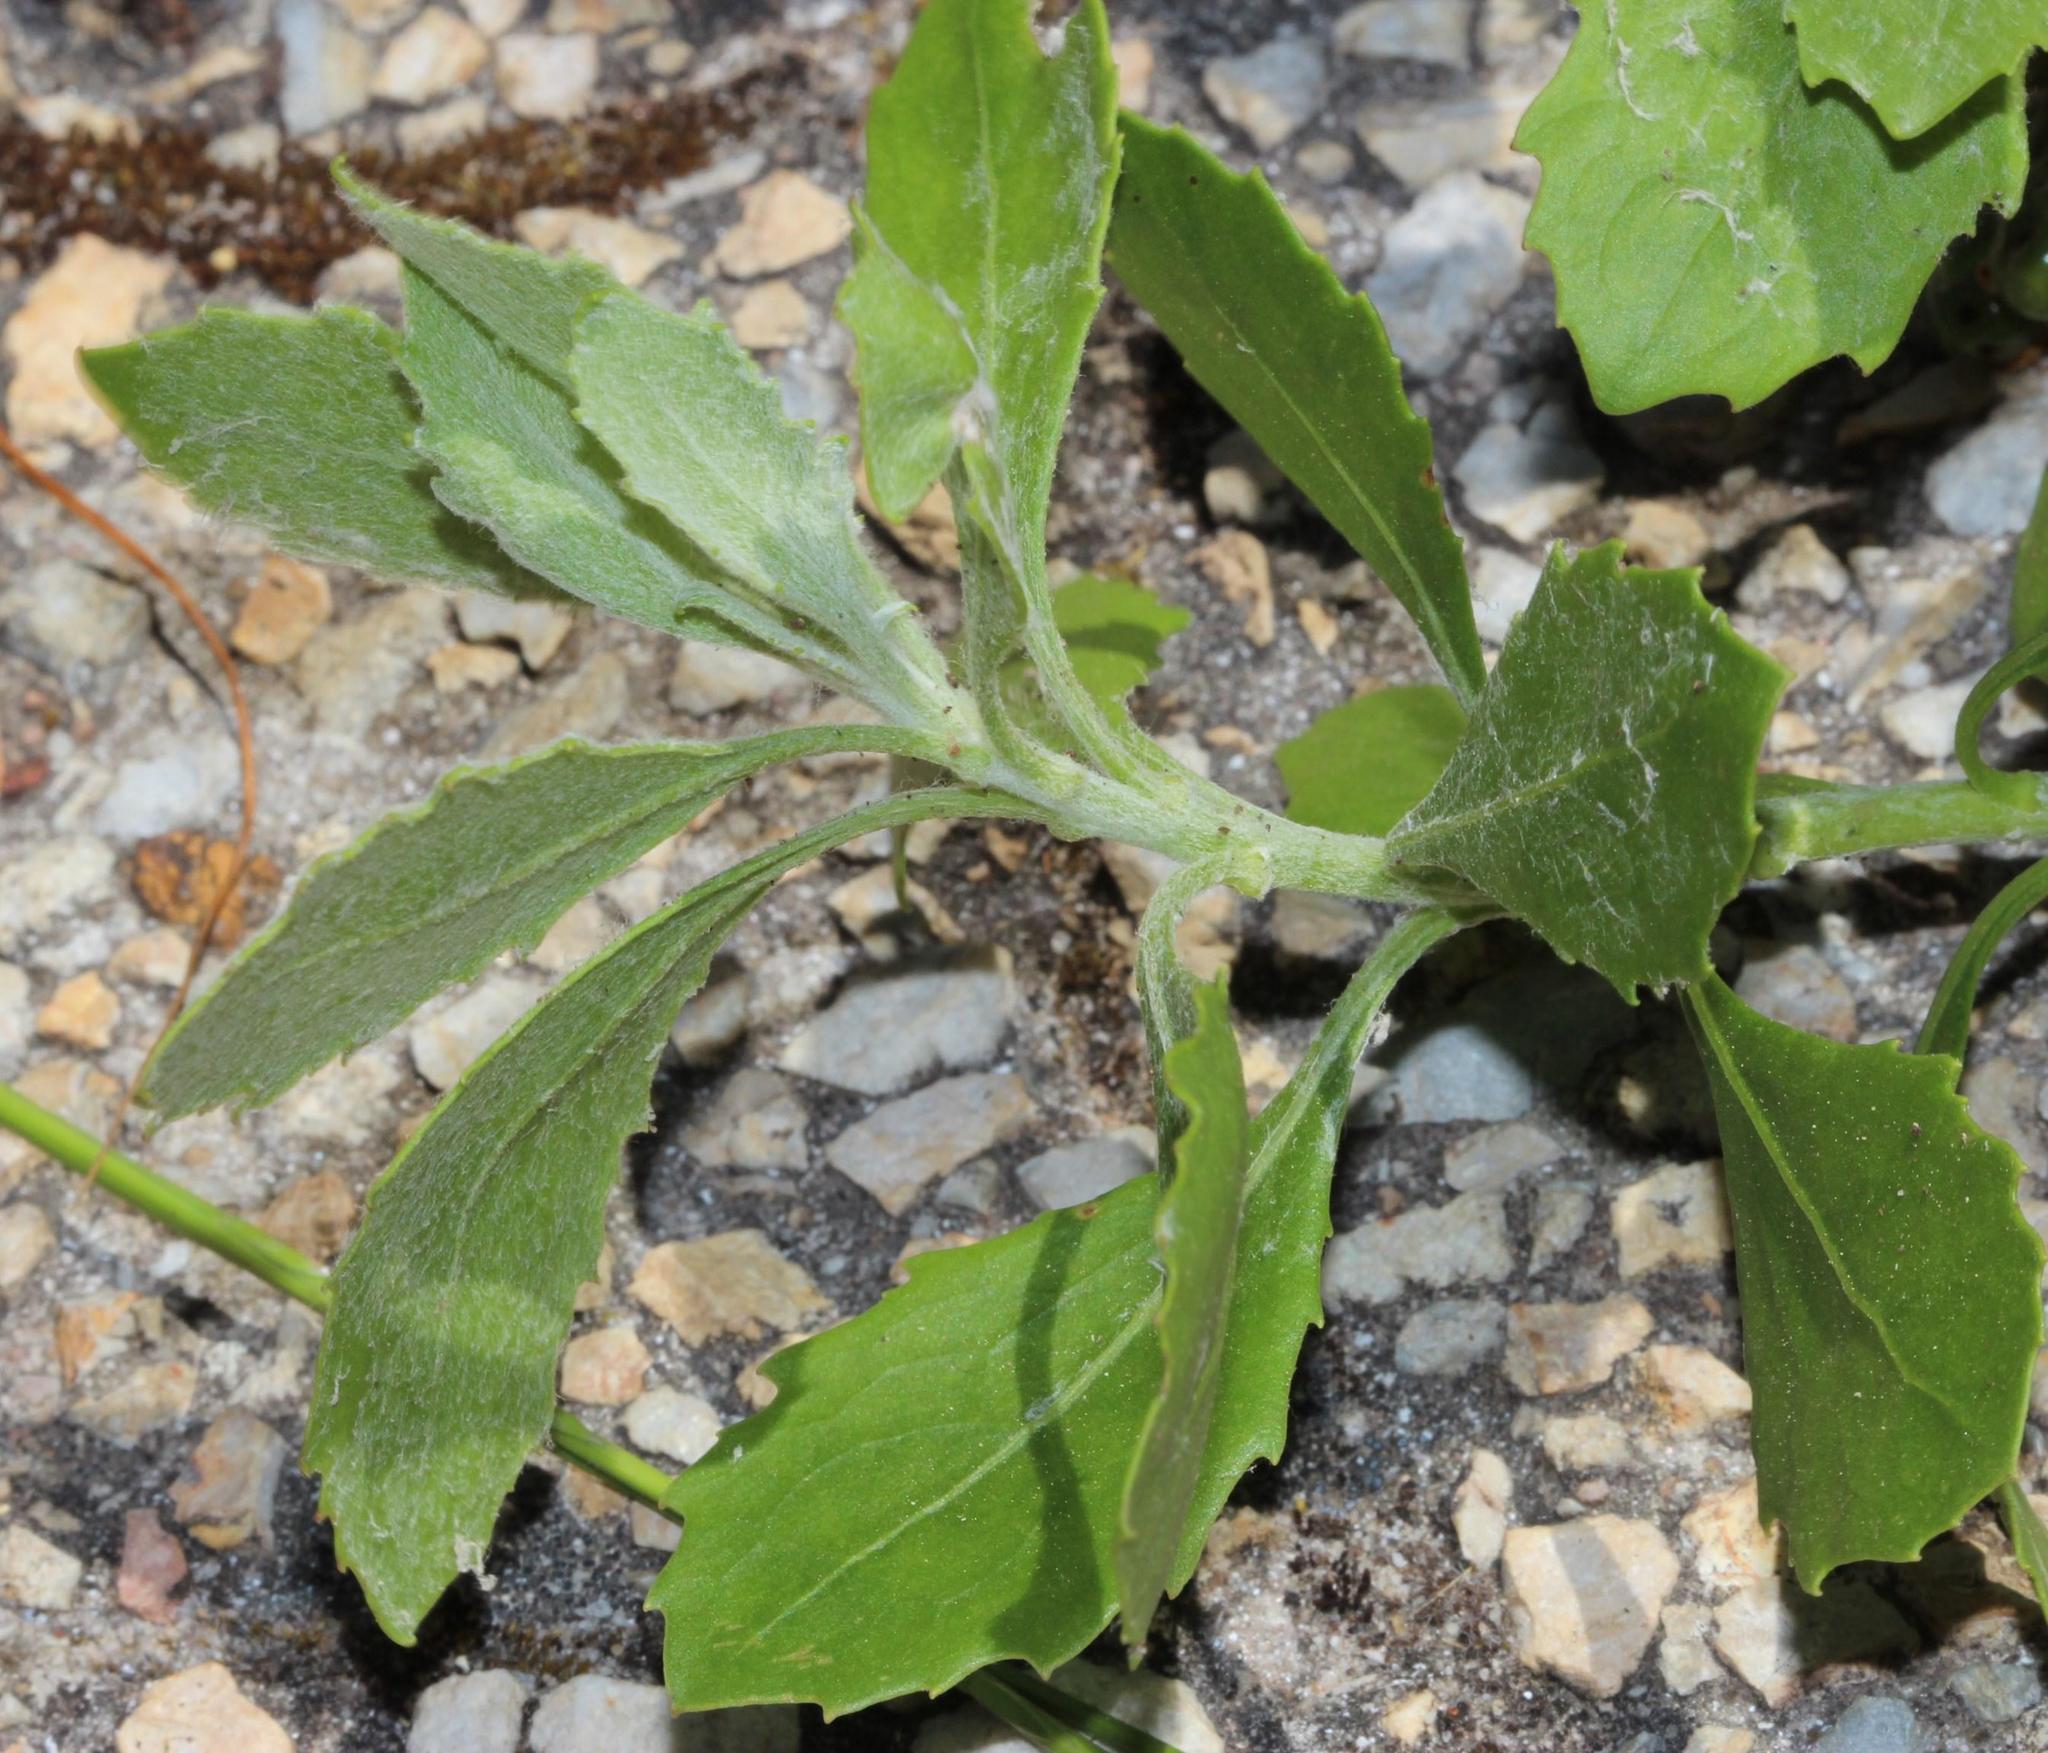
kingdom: Plantae
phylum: Tracheophyta
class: Magnoliopsida
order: Asterales
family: Asteraceae
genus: Osteospermum
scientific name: Osteospermum moniliferum
